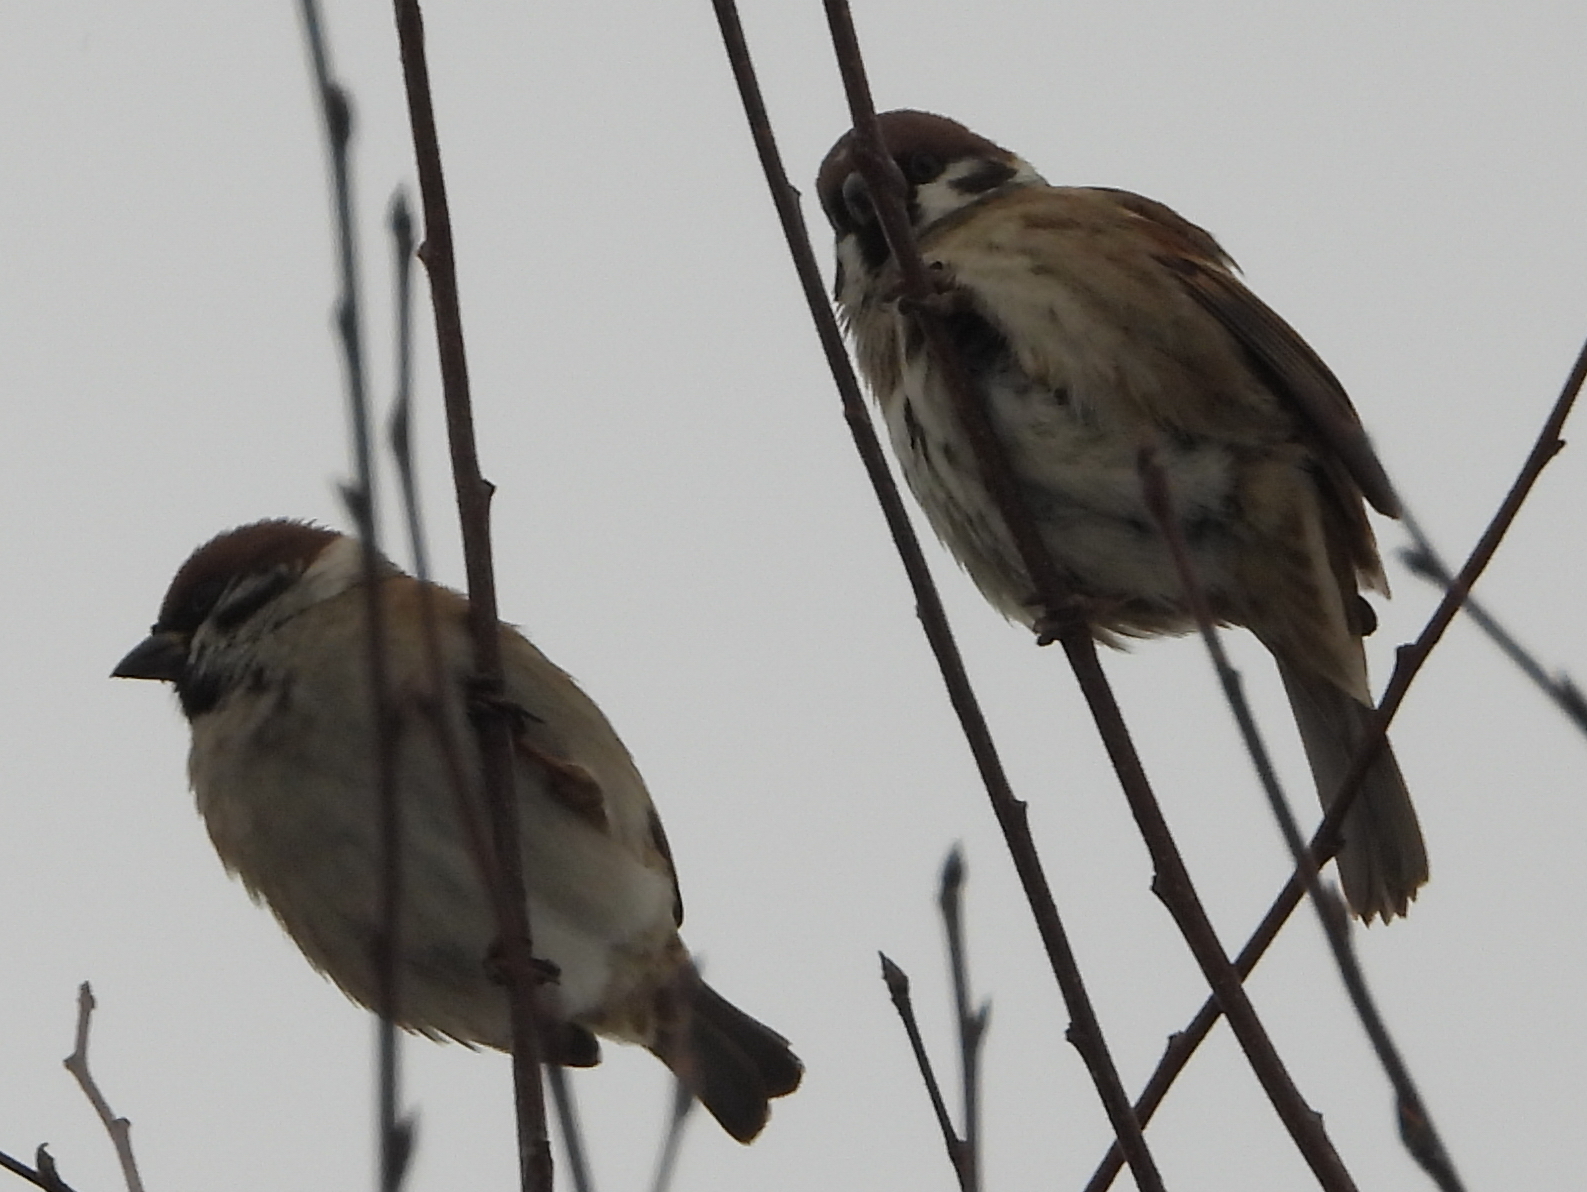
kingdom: Animalia
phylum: Chordata
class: Aves
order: Passeriformes
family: Passeridae
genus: Passer
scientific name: Passer montanus
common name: Eurasian tree sparrow
